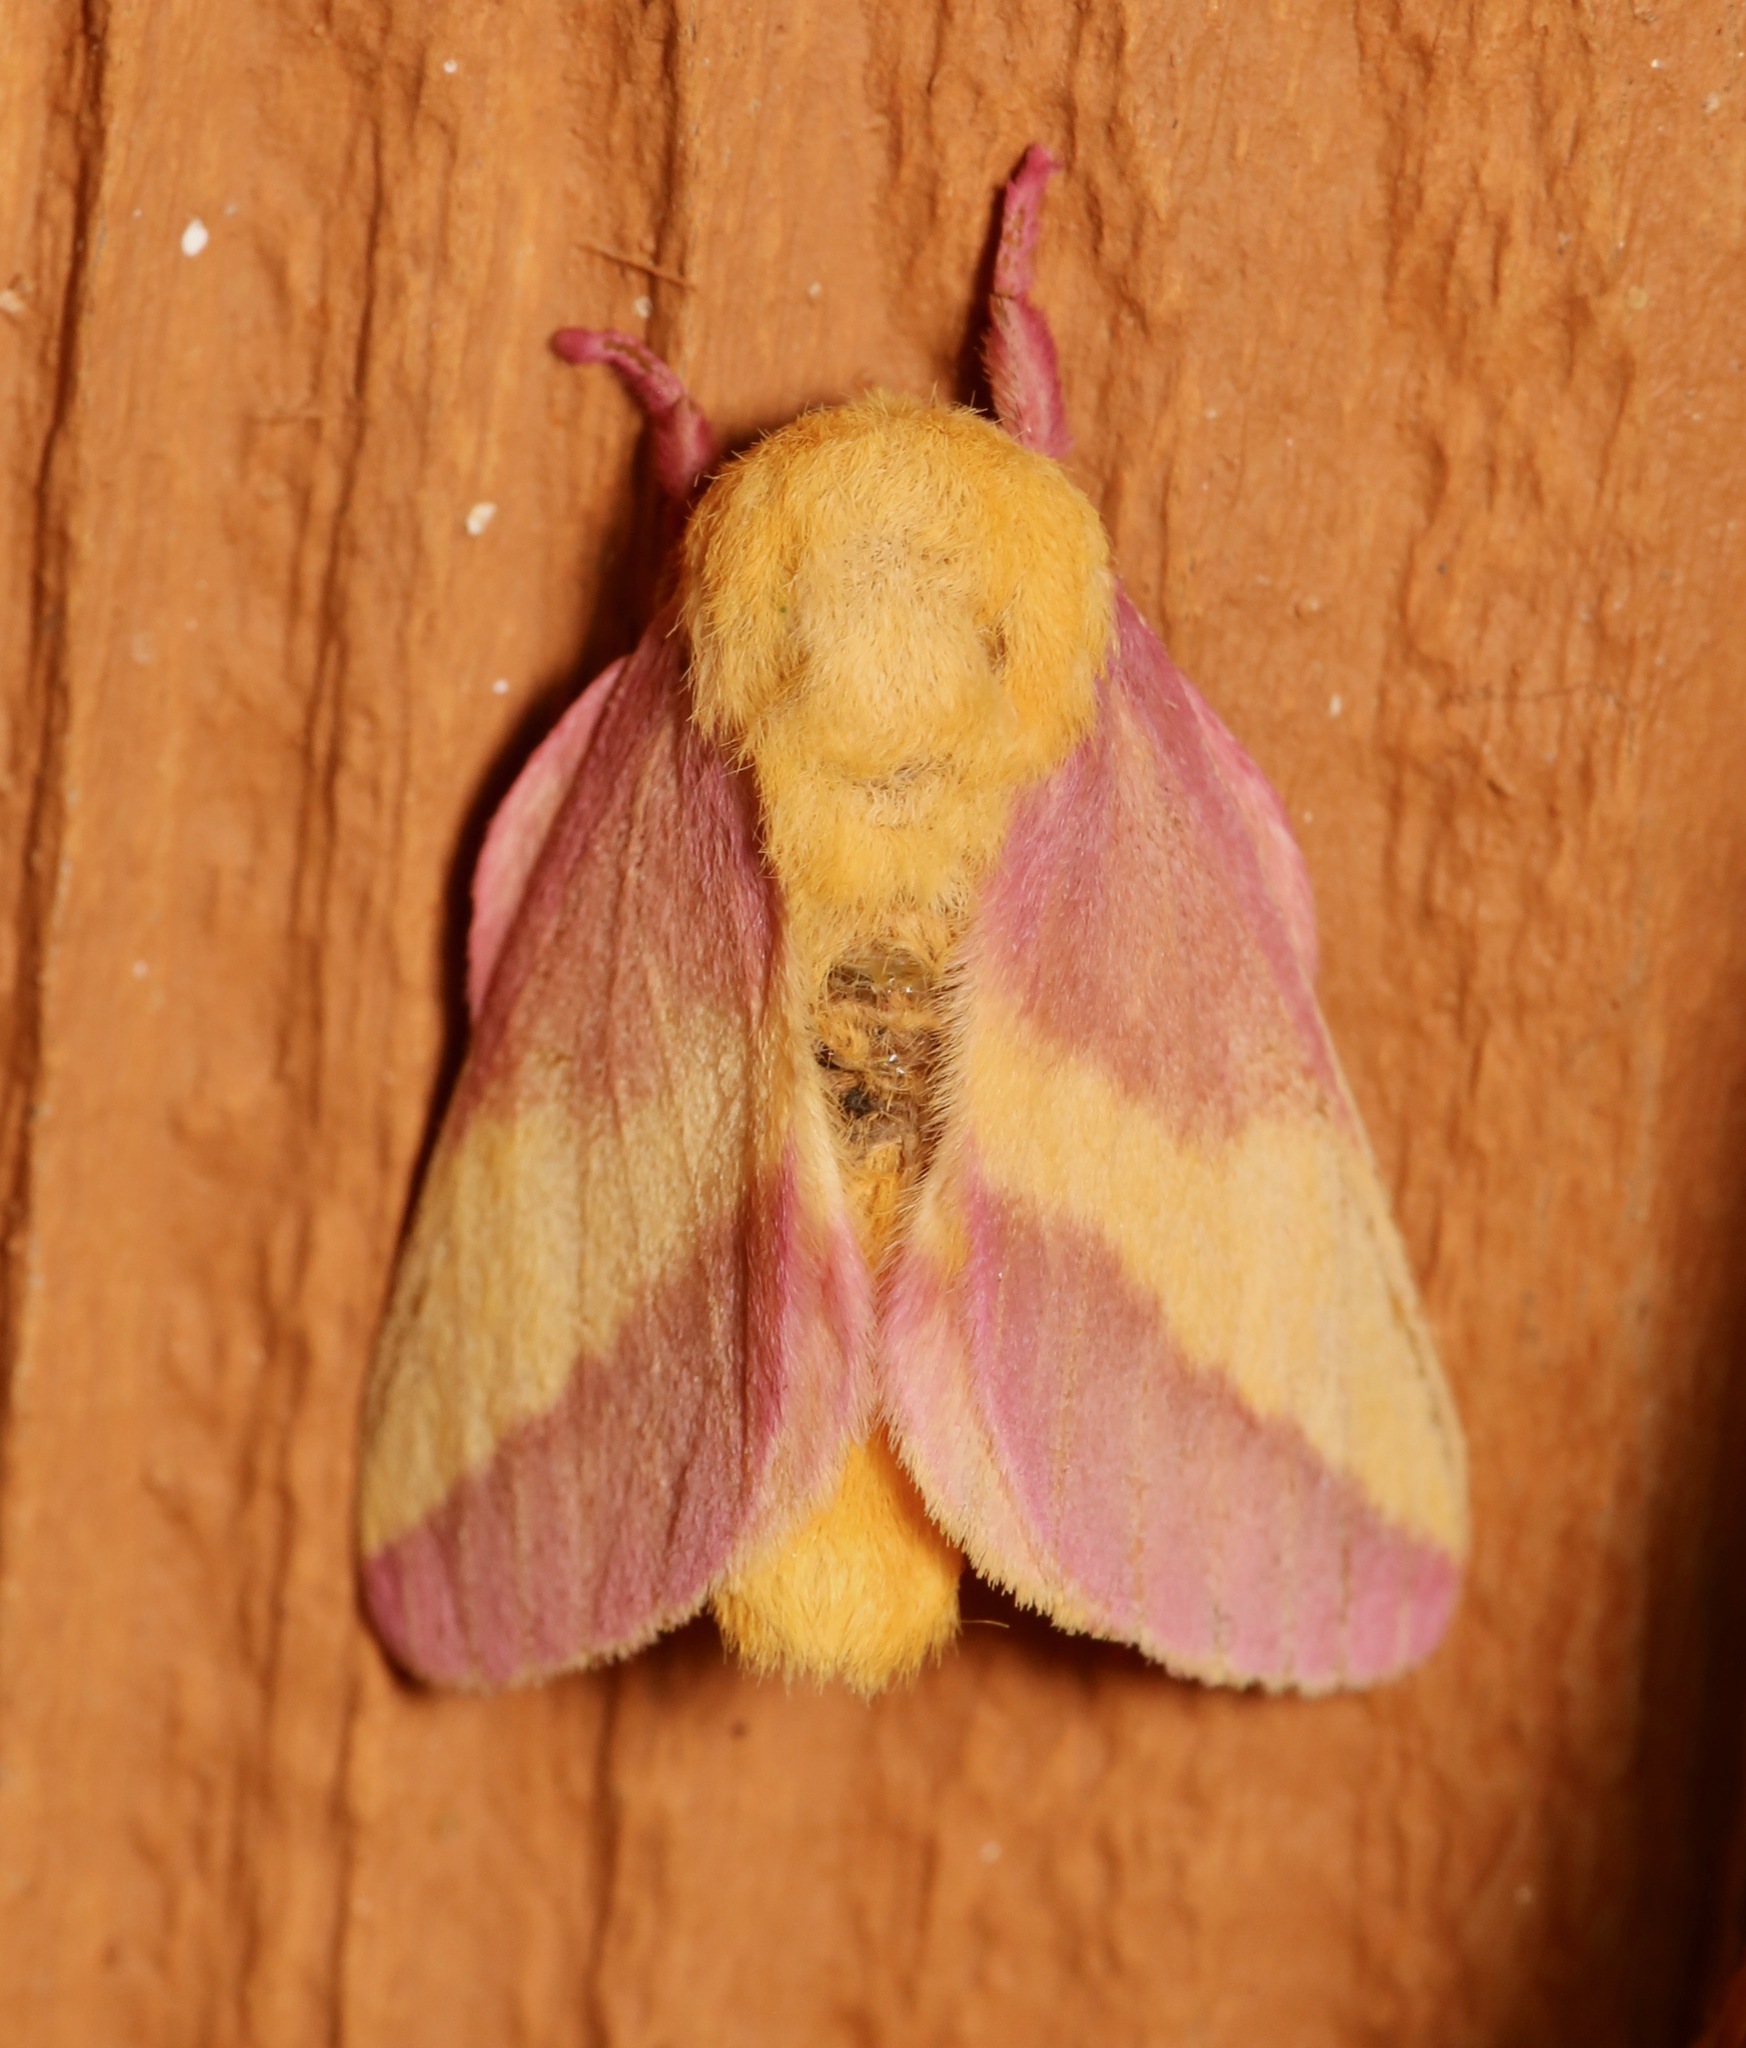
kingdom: Animalia
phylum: Arthropoda
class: Insecta
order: Lepidoptera
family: Saturniidae
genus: Dryocampa
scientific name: Dryocampa rubicunda
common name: Rosy maple moth
